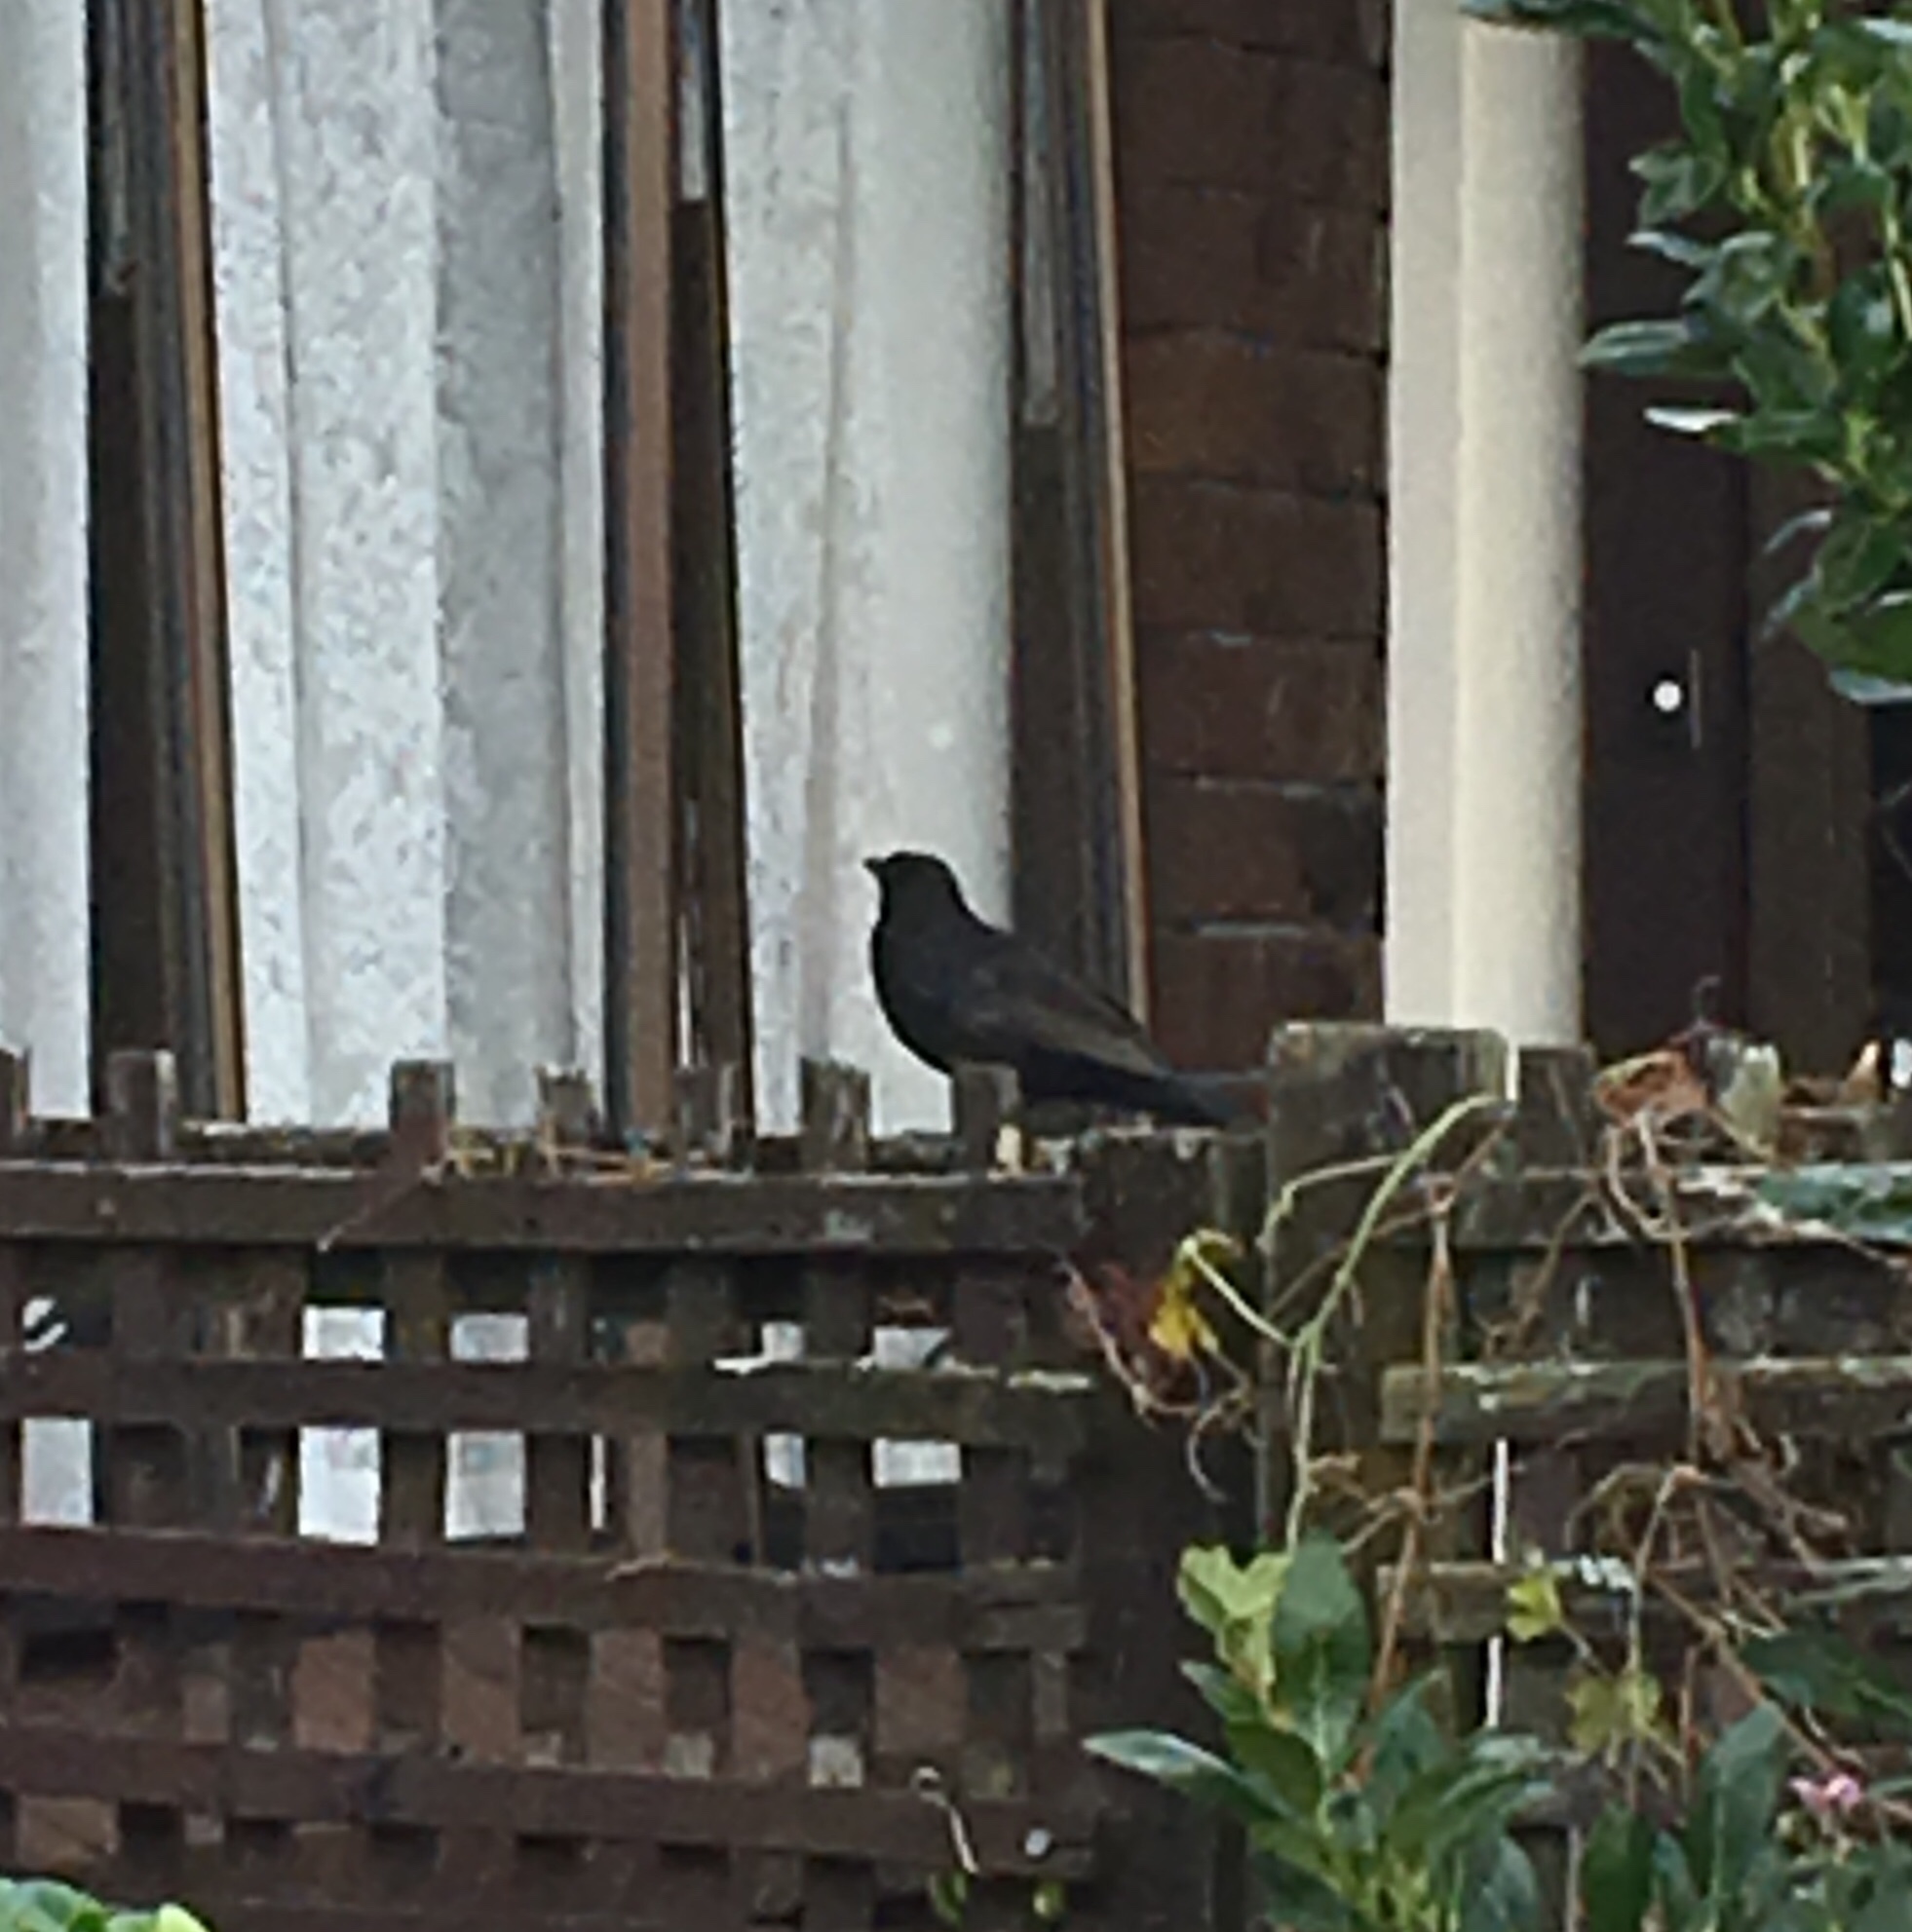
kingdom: Animalia
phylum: Chordata
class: Aves
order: Passeriformes
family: Turdidae
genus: Turdus
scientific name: Turdus merula
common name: Common blackbird
